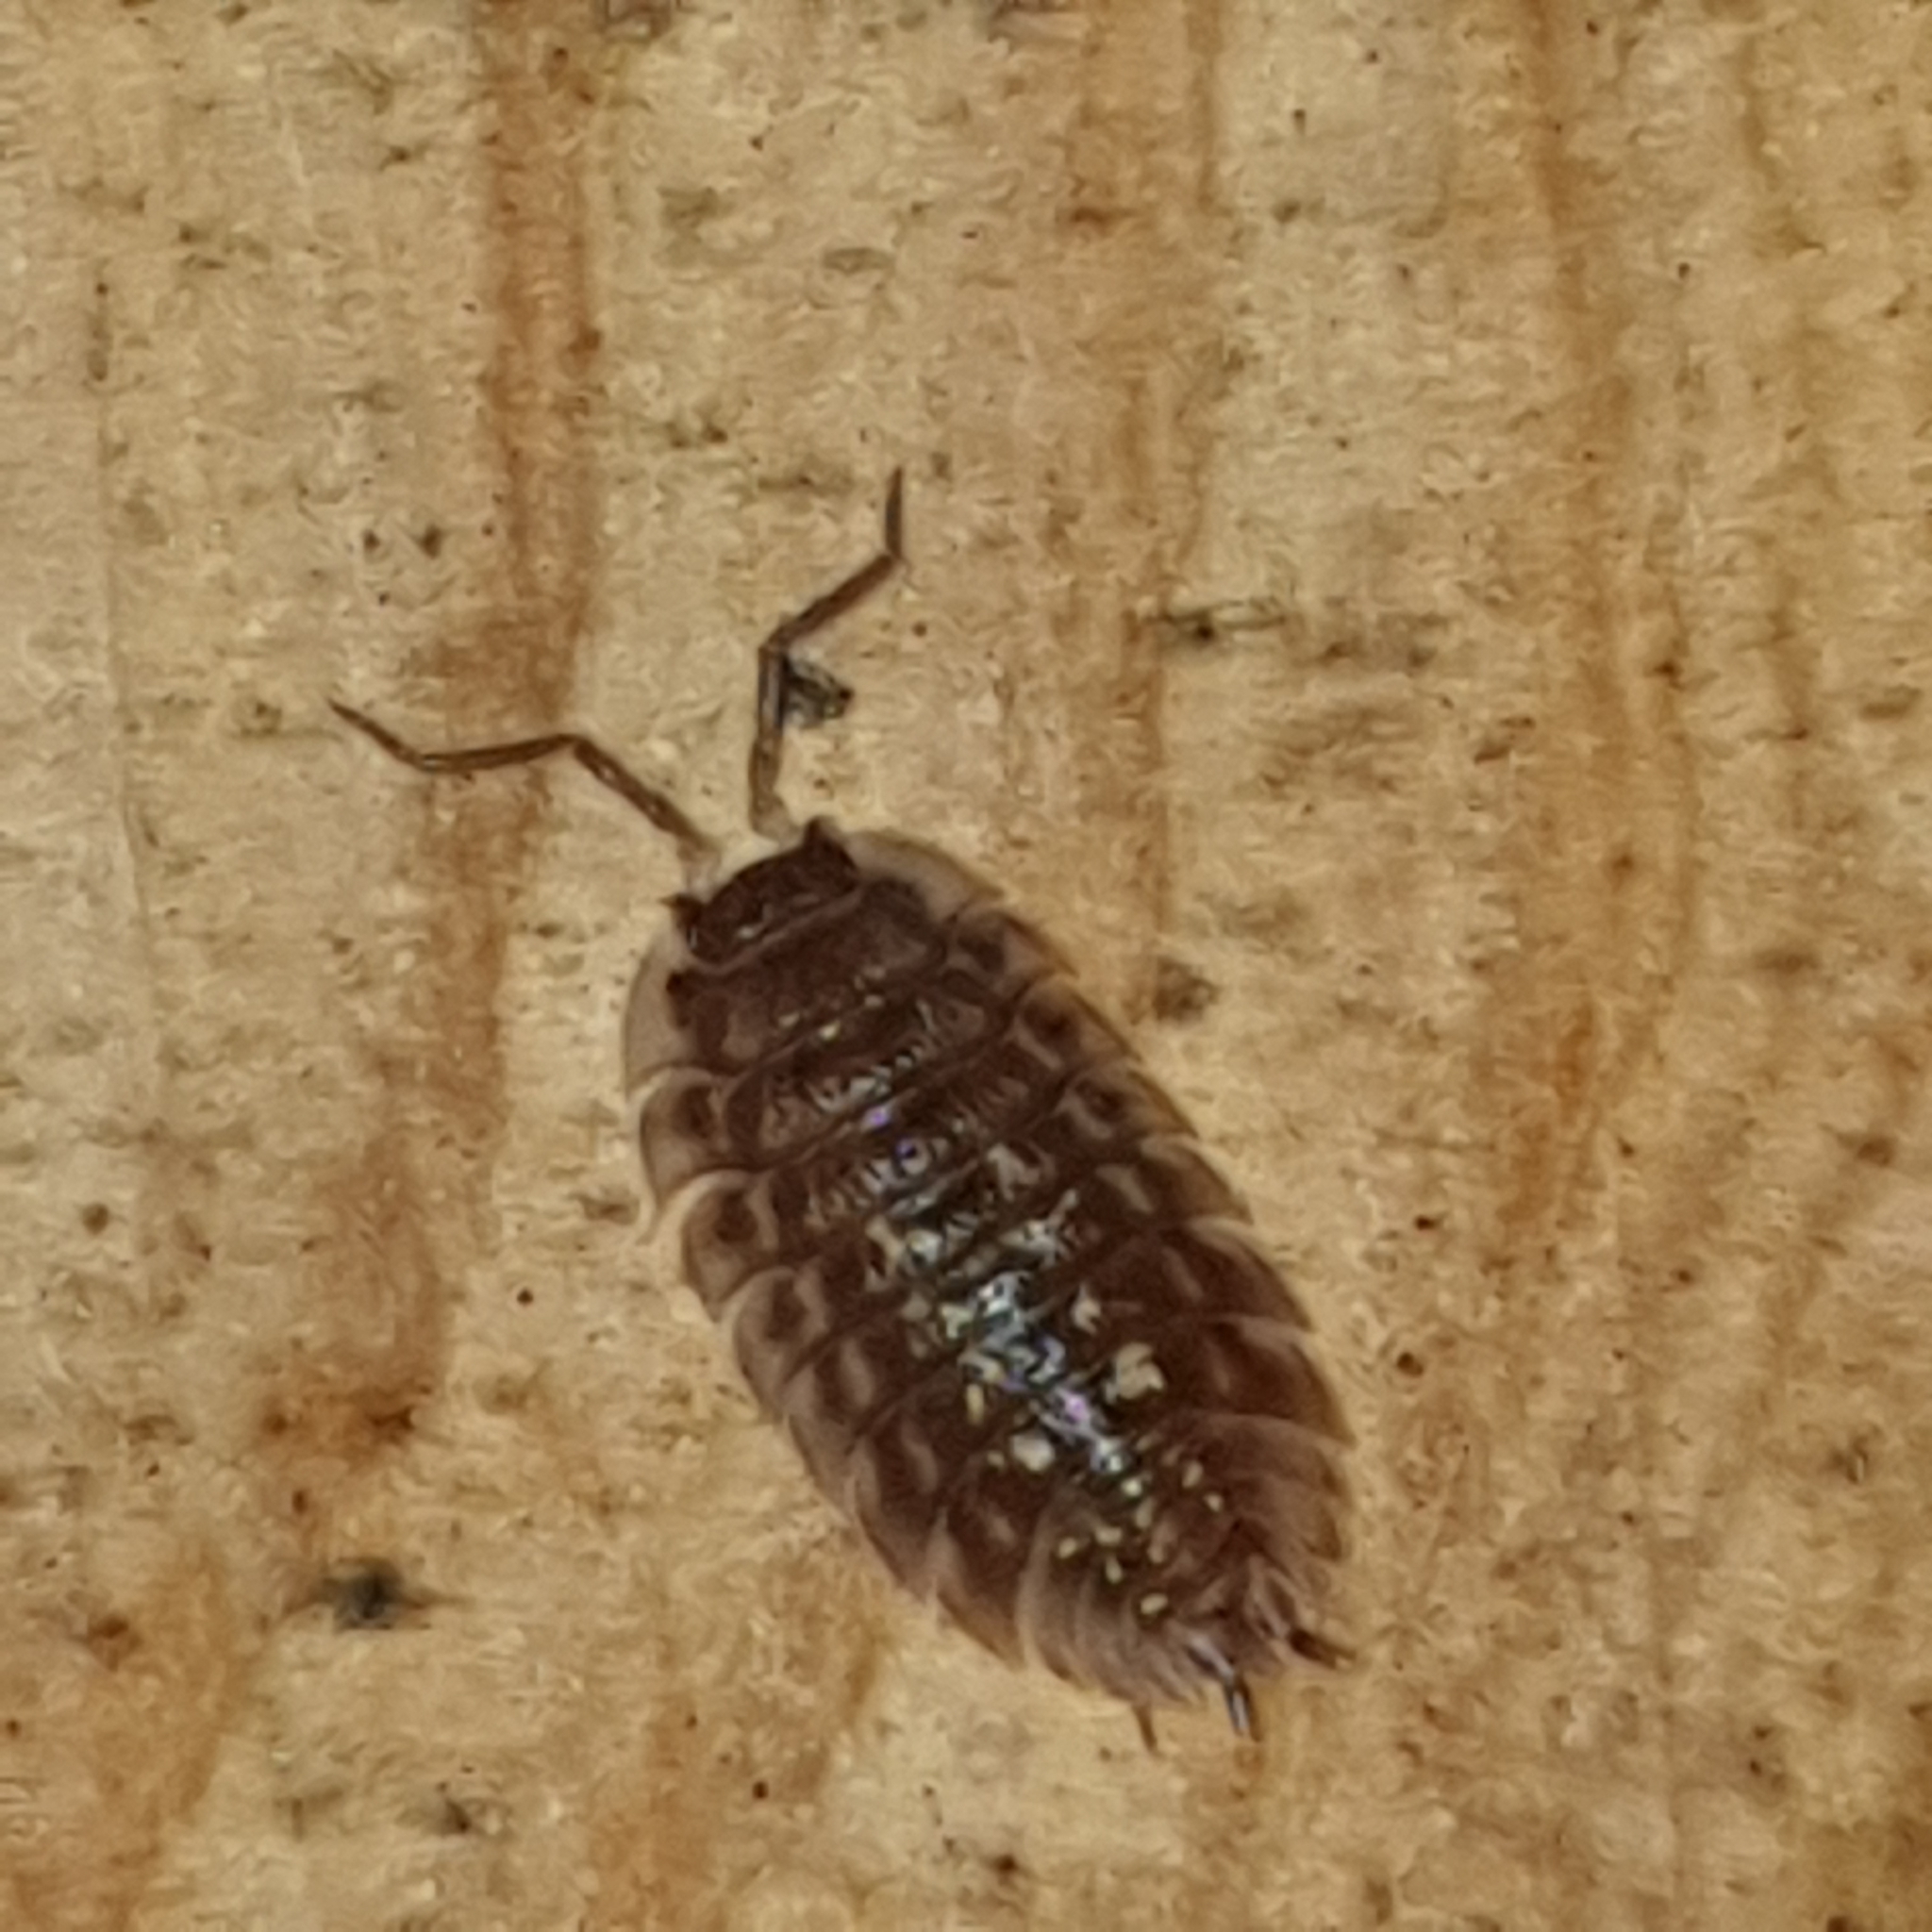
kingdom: Animalia
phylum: Arthropoda
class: Malacostraca
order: Isopoda
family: Oniscidae
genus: Oniscus
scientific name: Oniscus asellus
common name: Common shiny woodlouse
